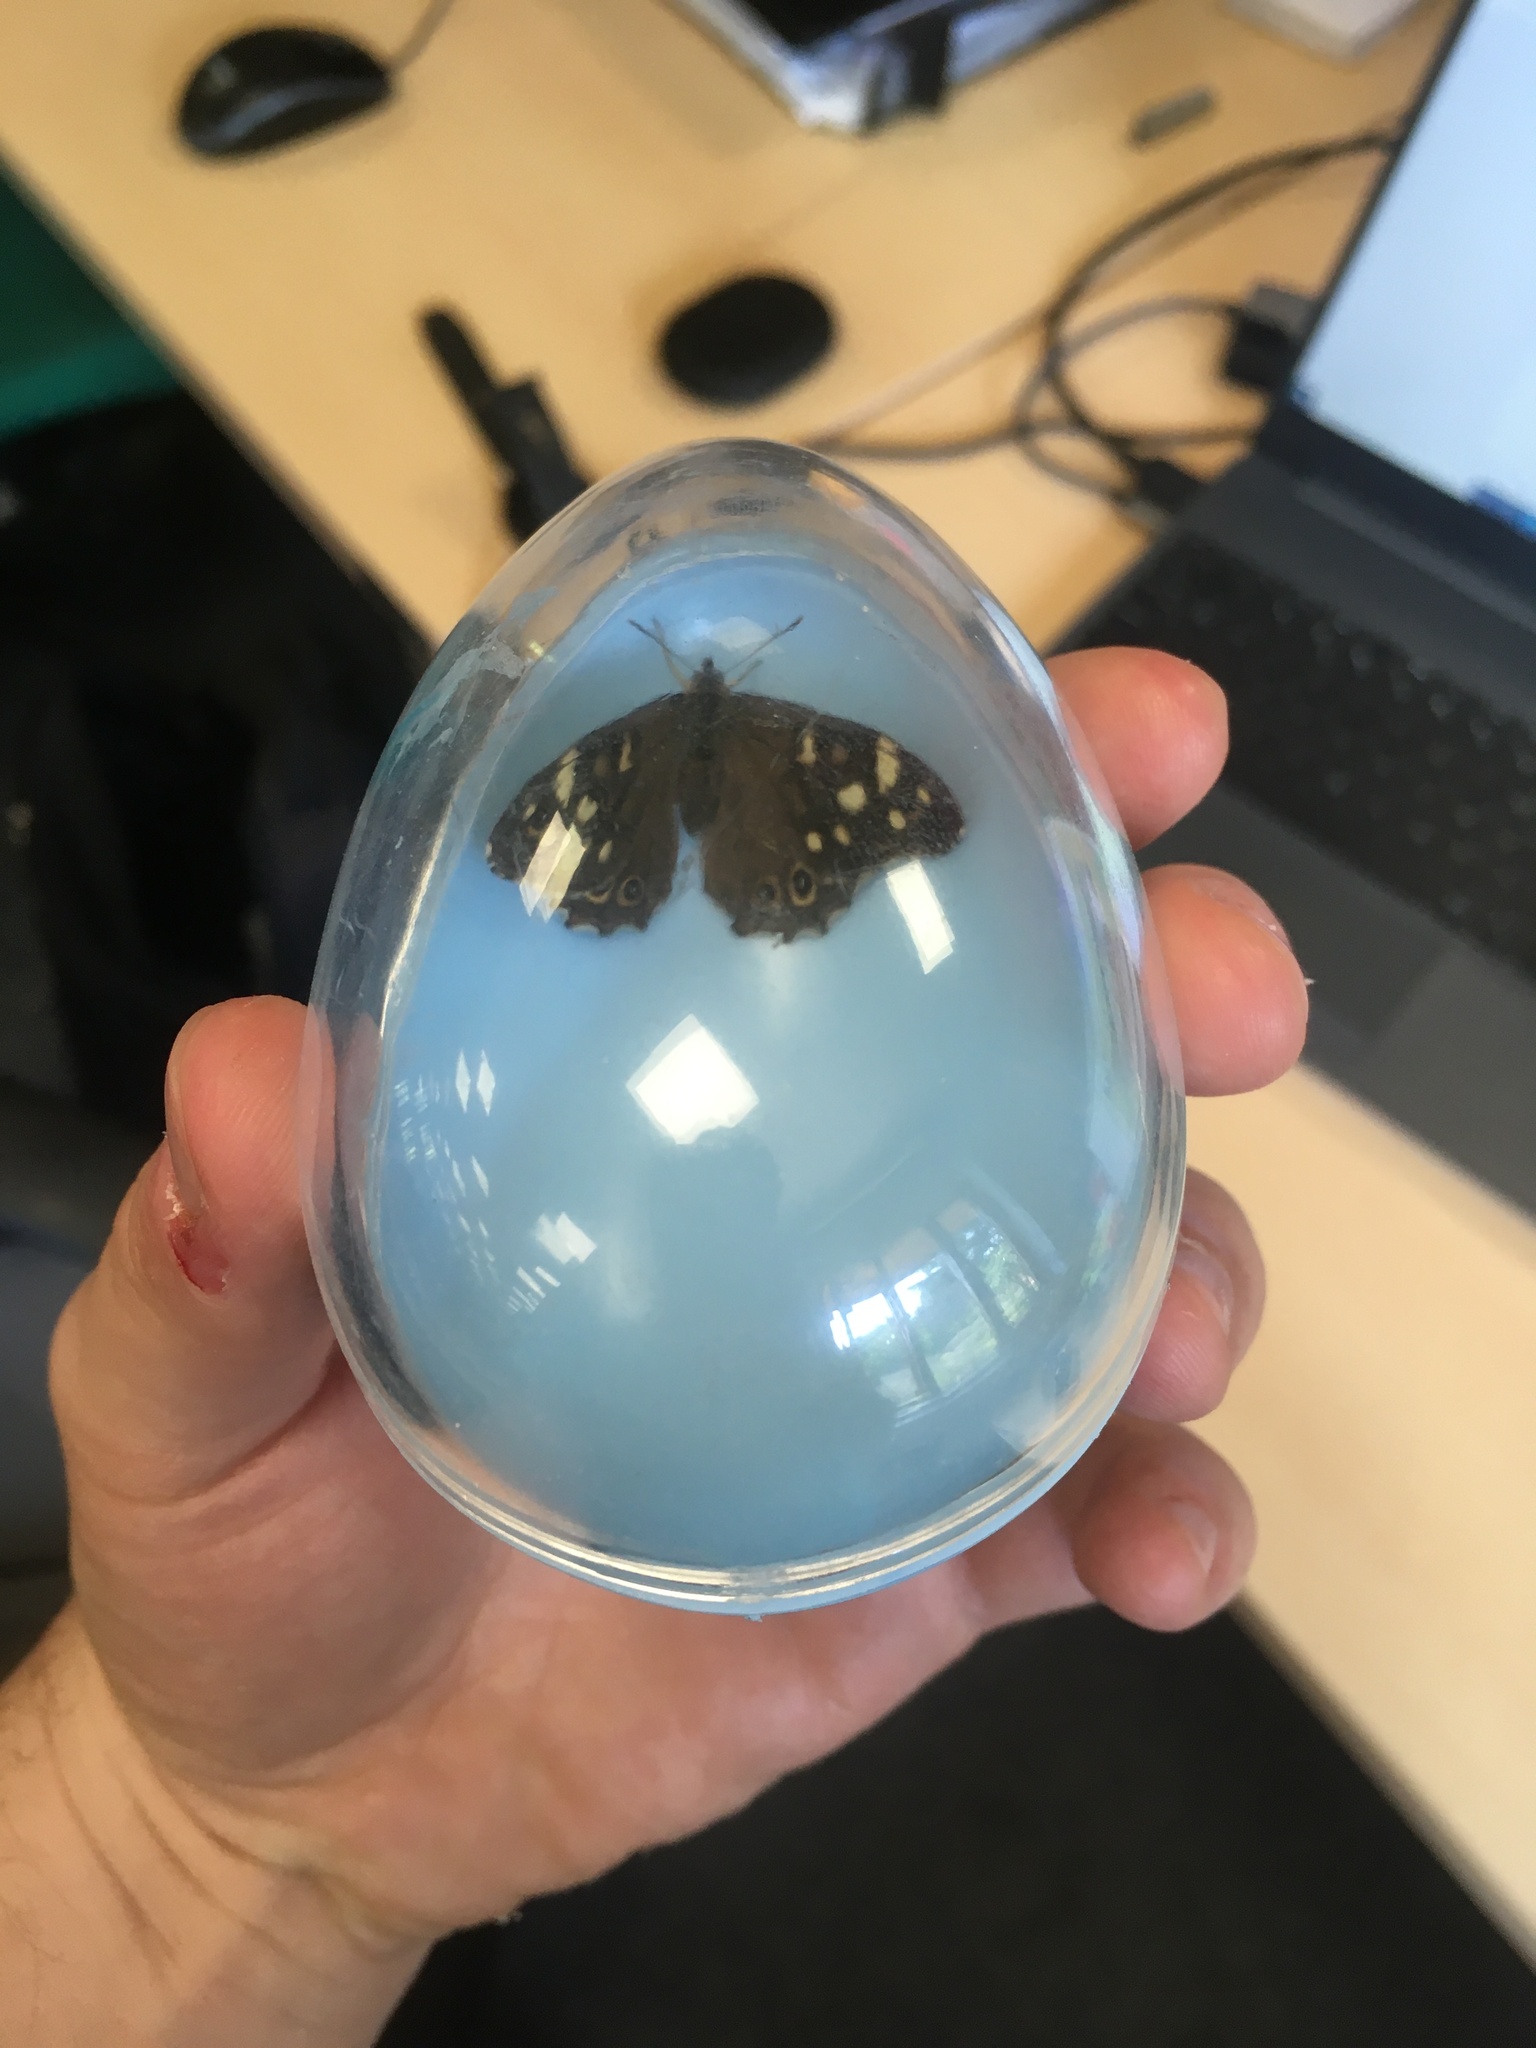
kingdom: Animalia
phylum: Arthropoda
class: Insecta
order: Lepidoptera
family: Nymphalidae
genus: Pararge
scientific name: Pararge aegeria
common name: Speckled wood
